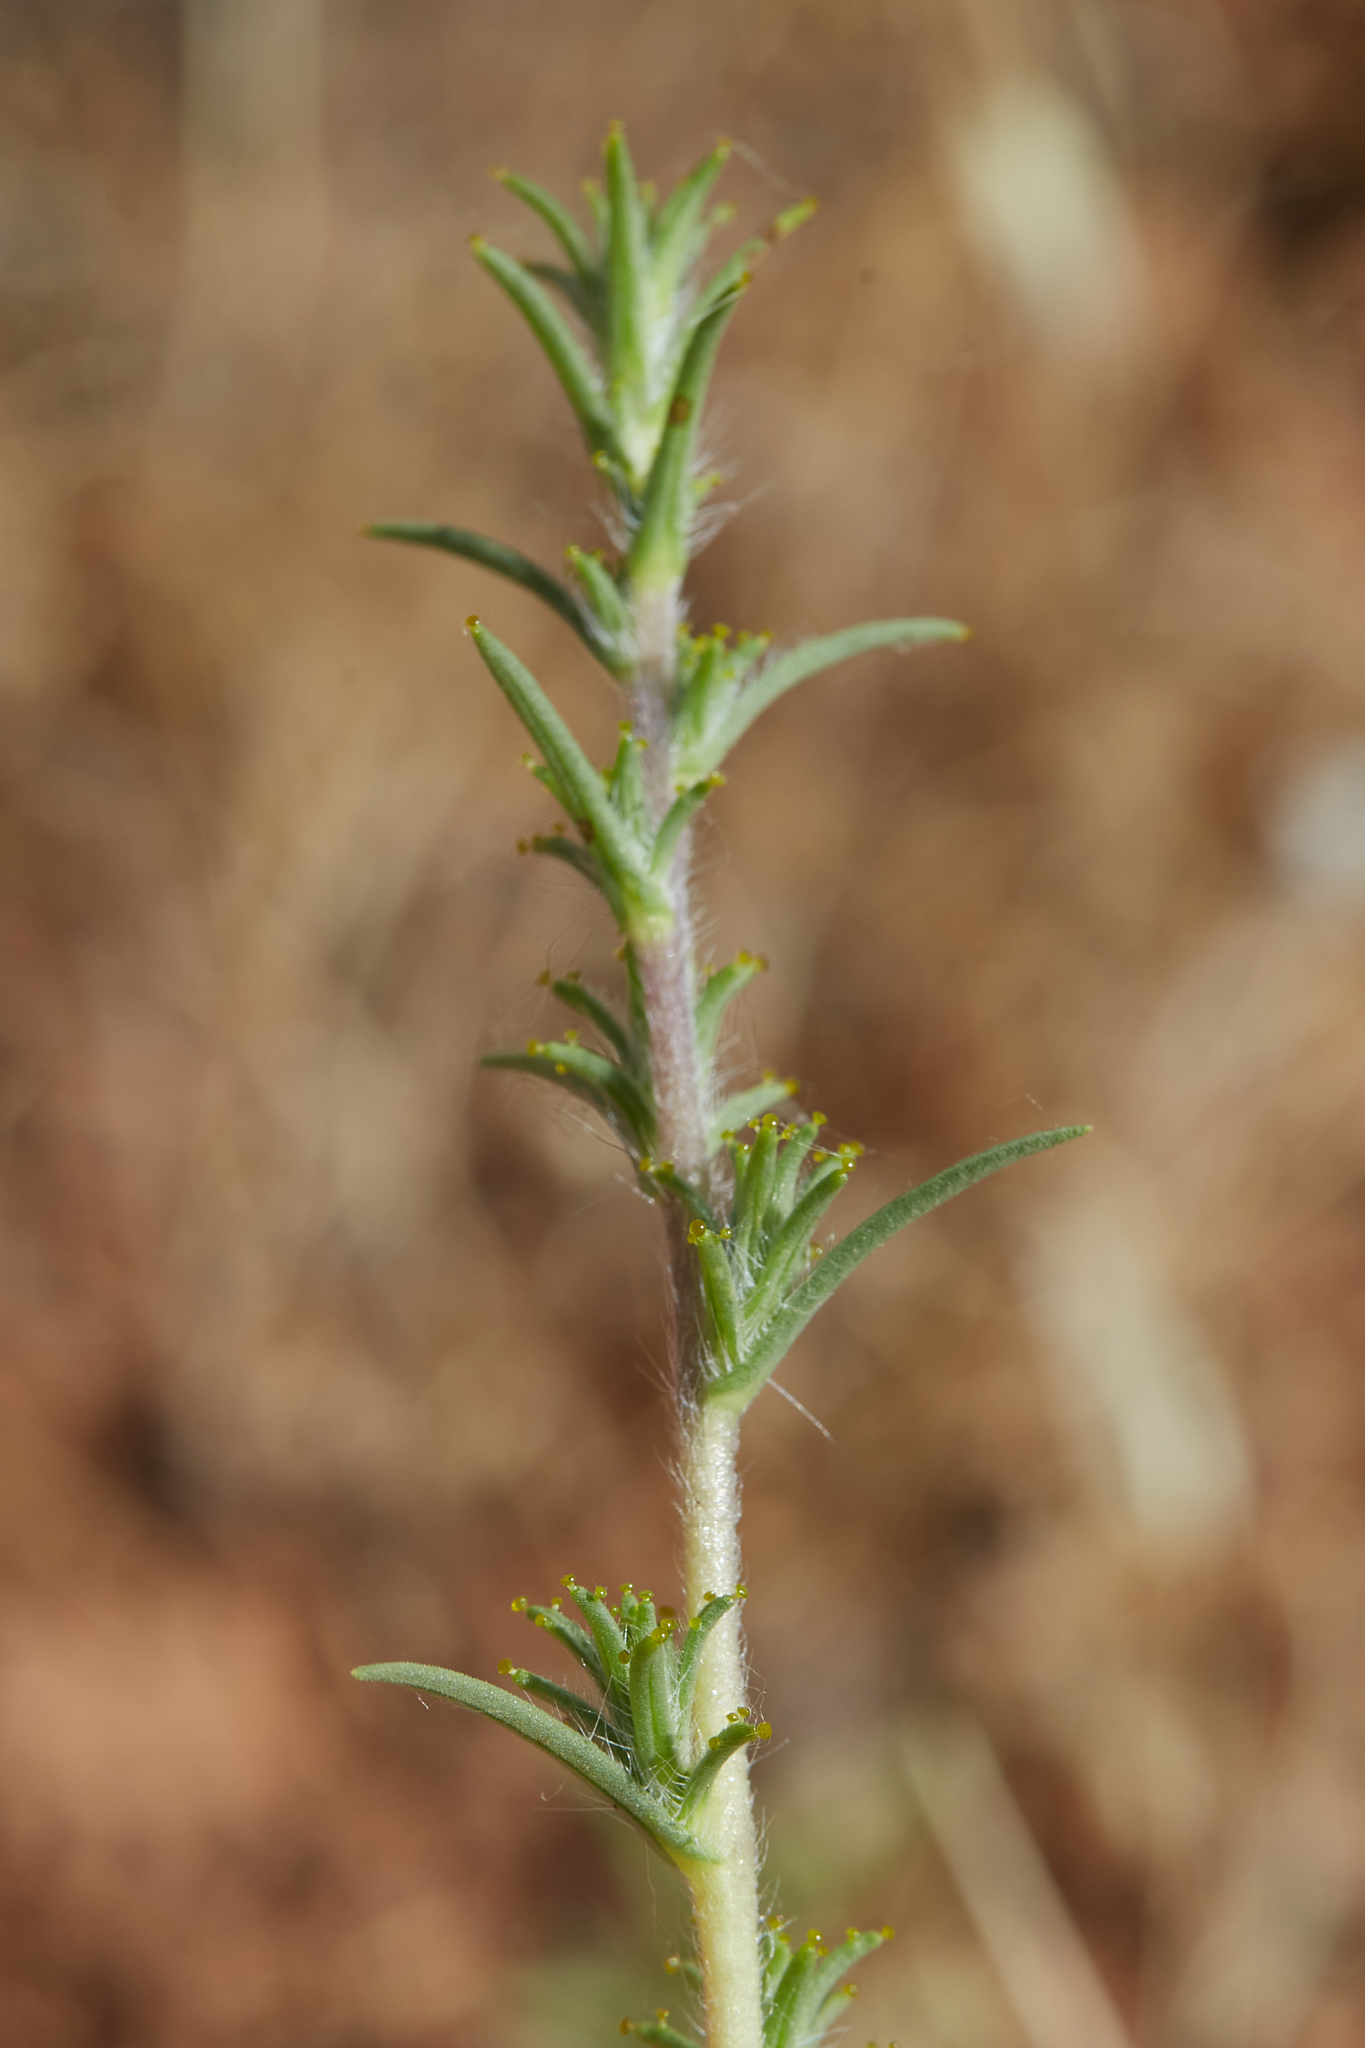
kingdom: Plantae
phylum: Tracheophyta
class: Magnoliopsida
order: Asterales
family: Asteraceae
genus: Calycadenia
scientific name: Calycadenia fremontii
